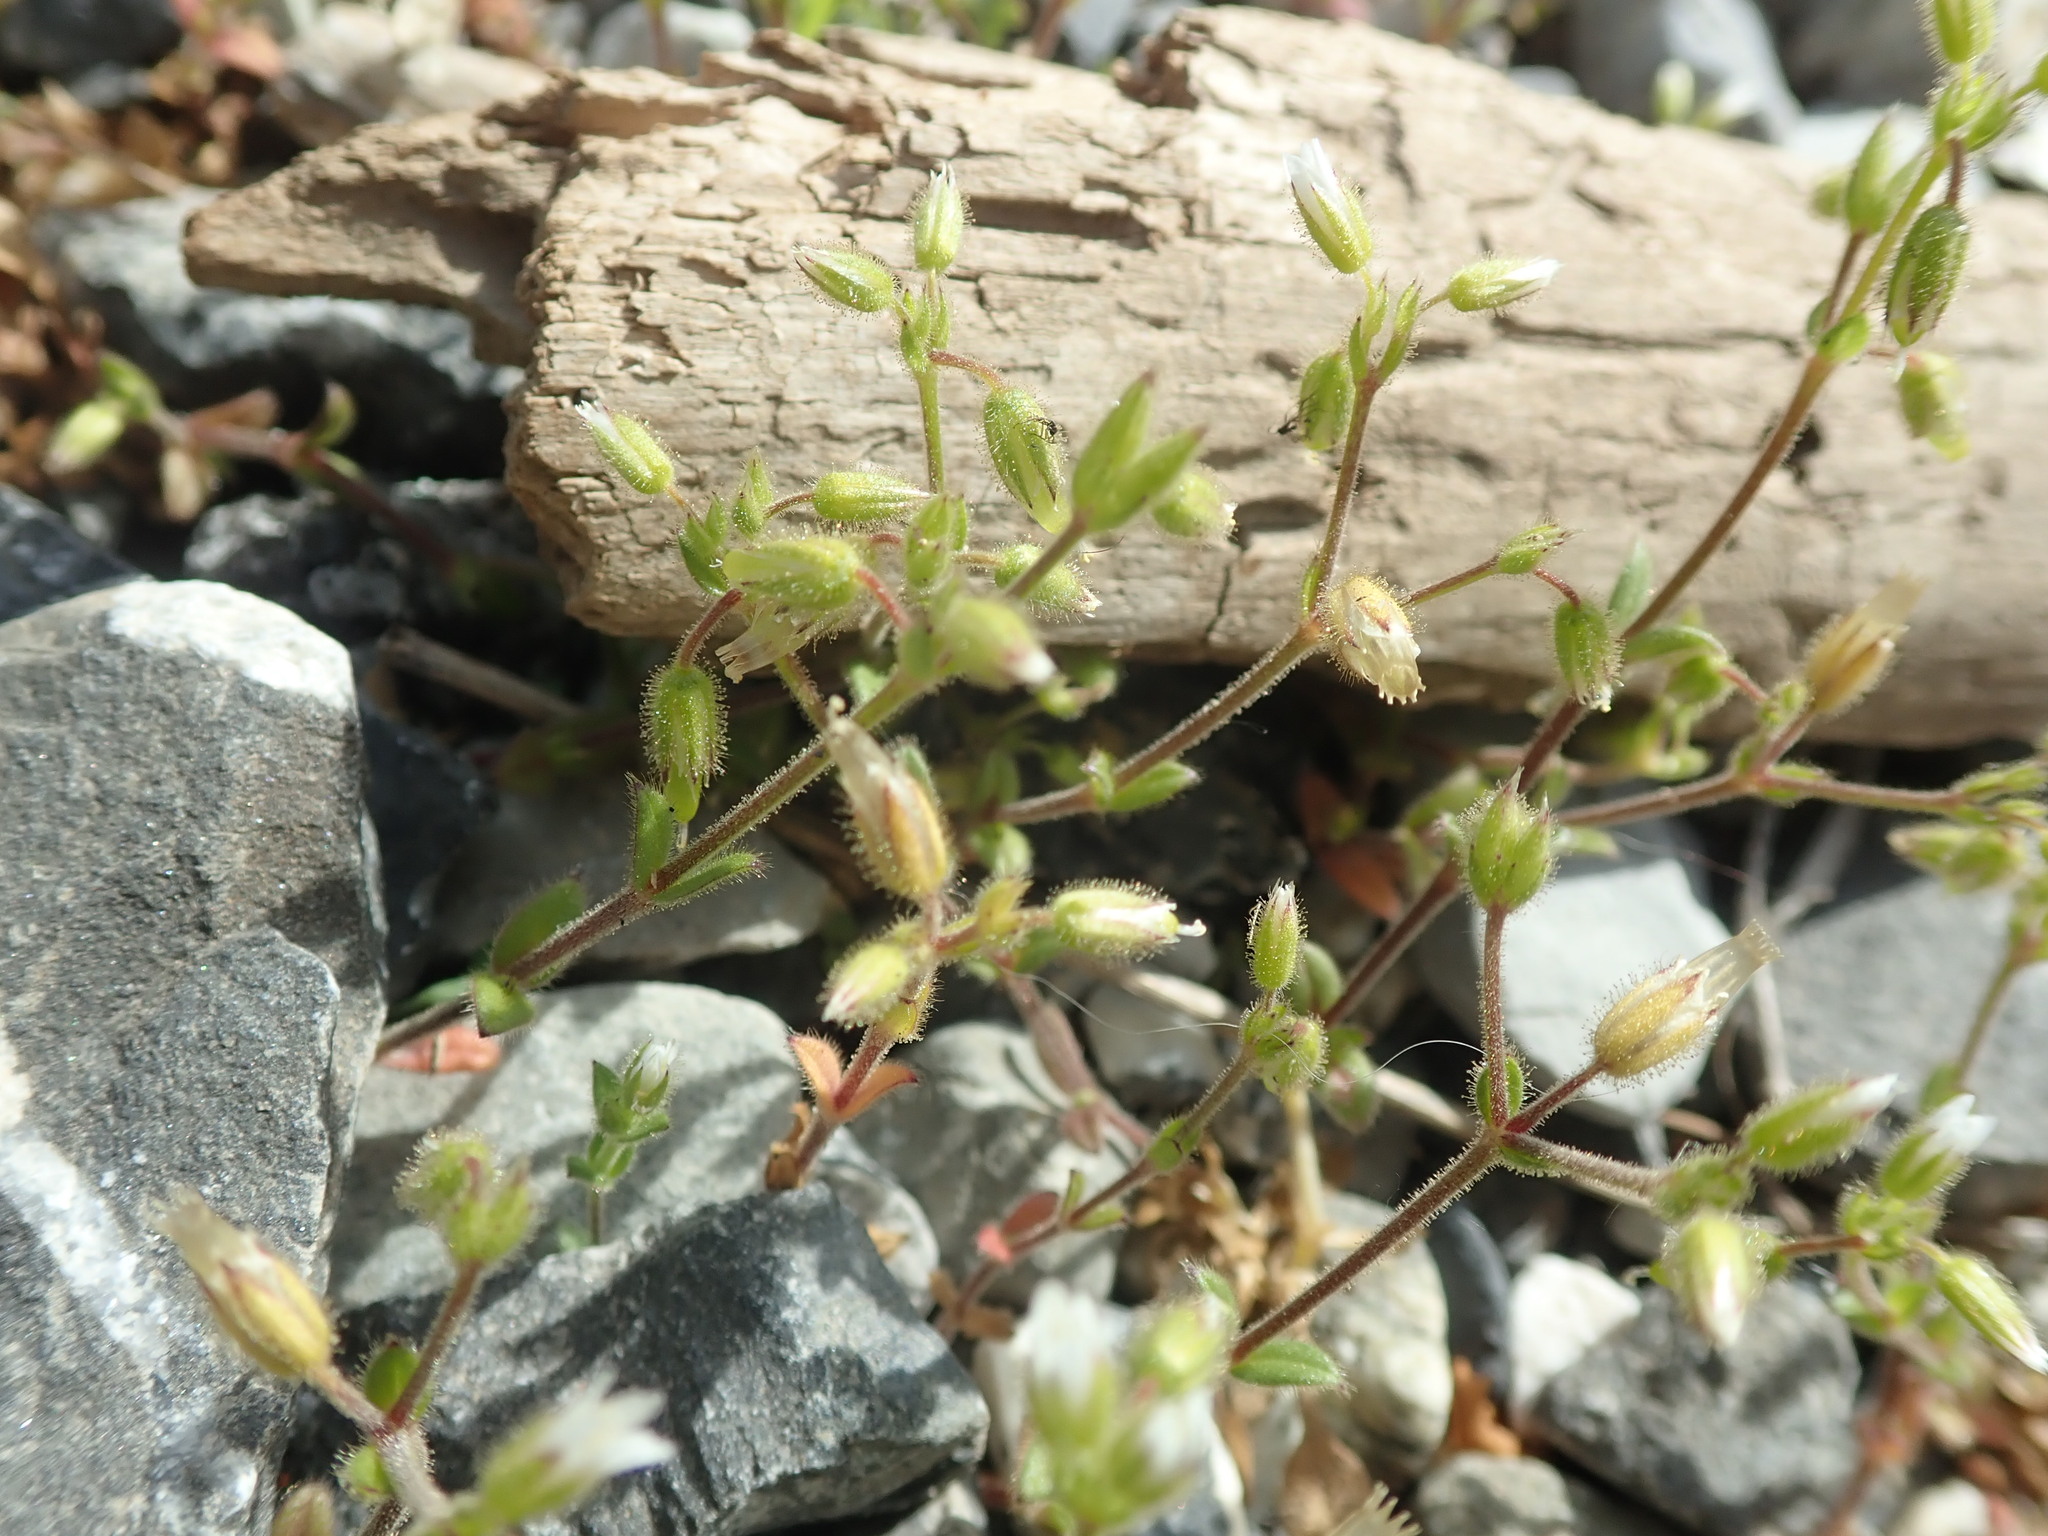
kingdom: Plantae
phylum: Tracheophyta
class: Magnoliopsida
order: Caryophyllales
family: Caryophyllaceae
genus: Cerastium
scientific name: Cerastium pumilum
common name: Dwarf mouse-ear
